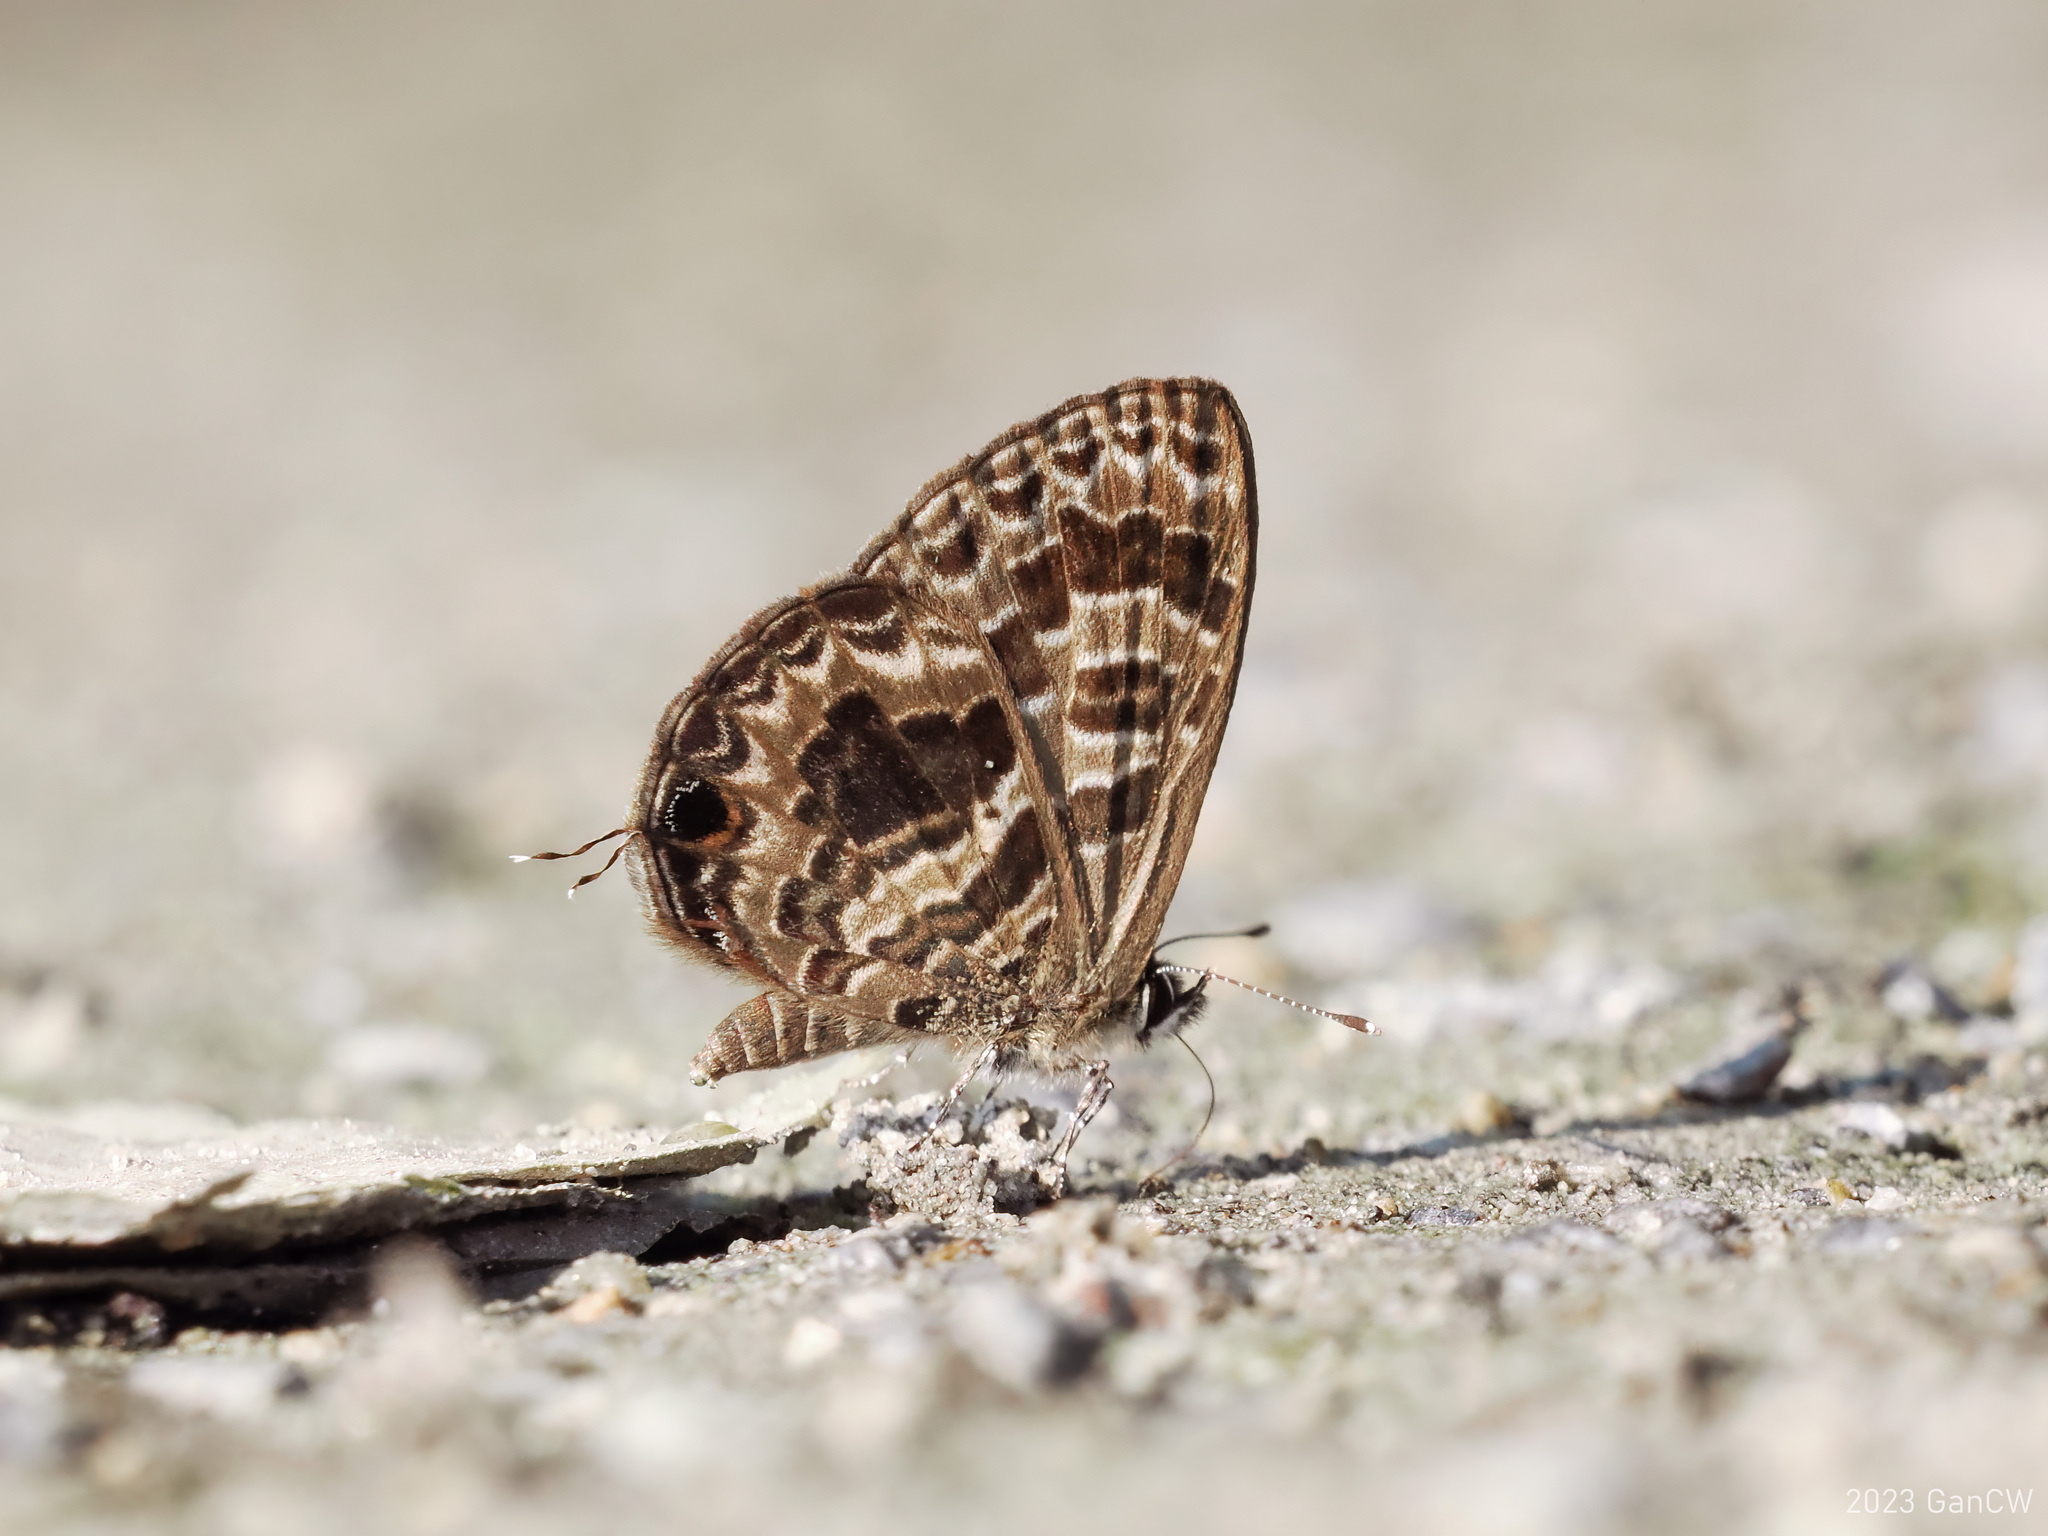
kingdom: Animalia
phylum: Arthropoda
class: Insecta
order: Lepidoptera
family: Lycaenidae
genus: Prosotas
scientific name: Prosotas aluta
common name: Barred lineblue
